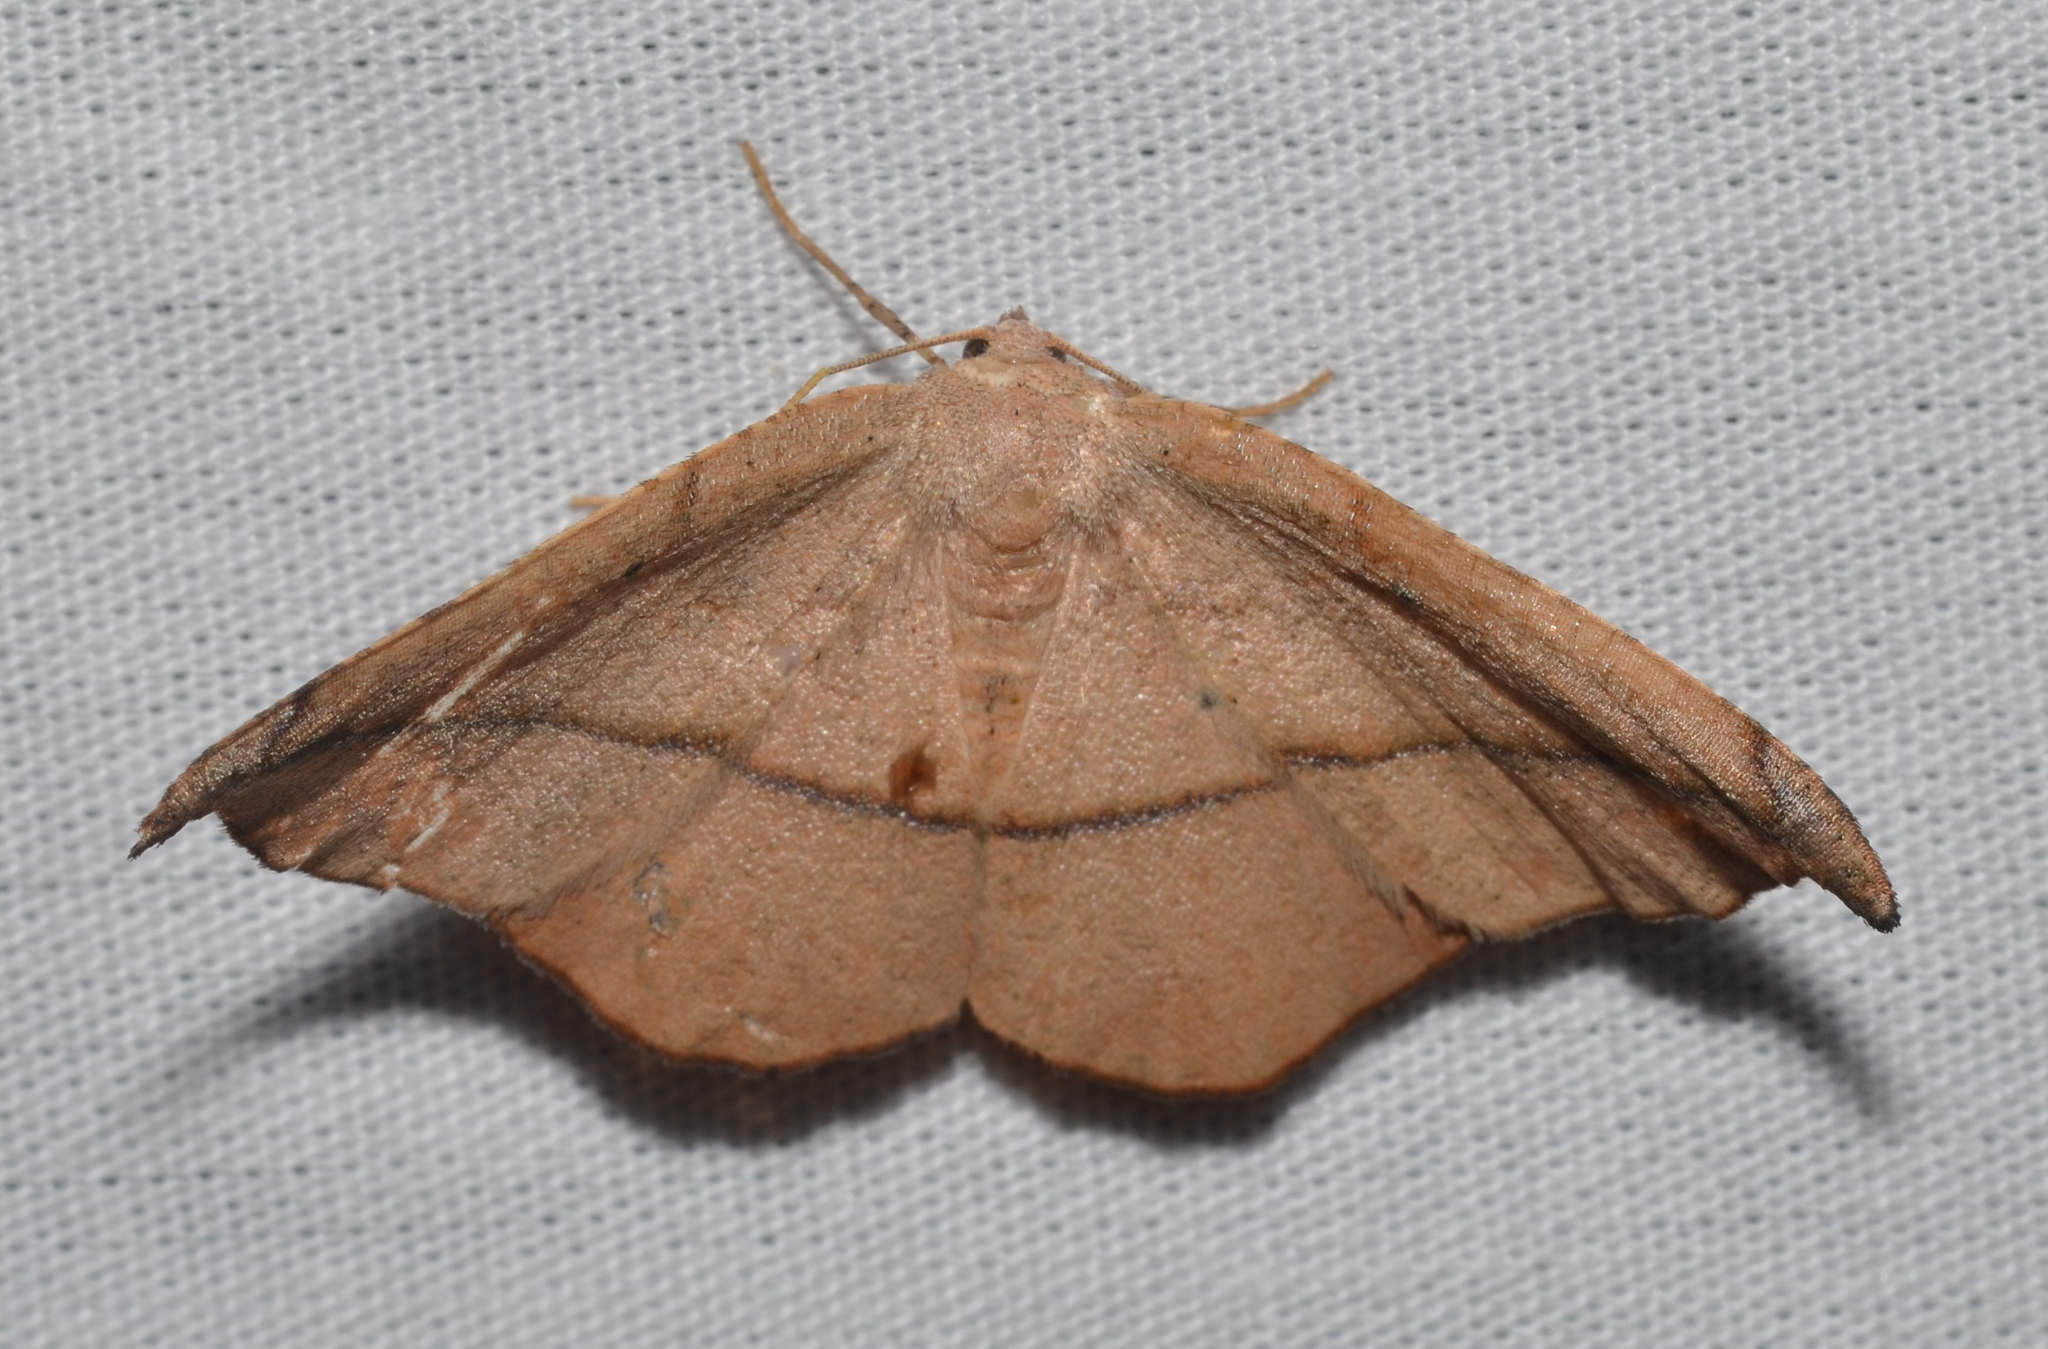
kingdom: Animalia
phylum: Arthropoda
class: Insecta
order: Lepidoptera
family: Geometridae
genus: Patalene
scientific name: Patalene olyzonaria
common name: Juniper geometer moth
